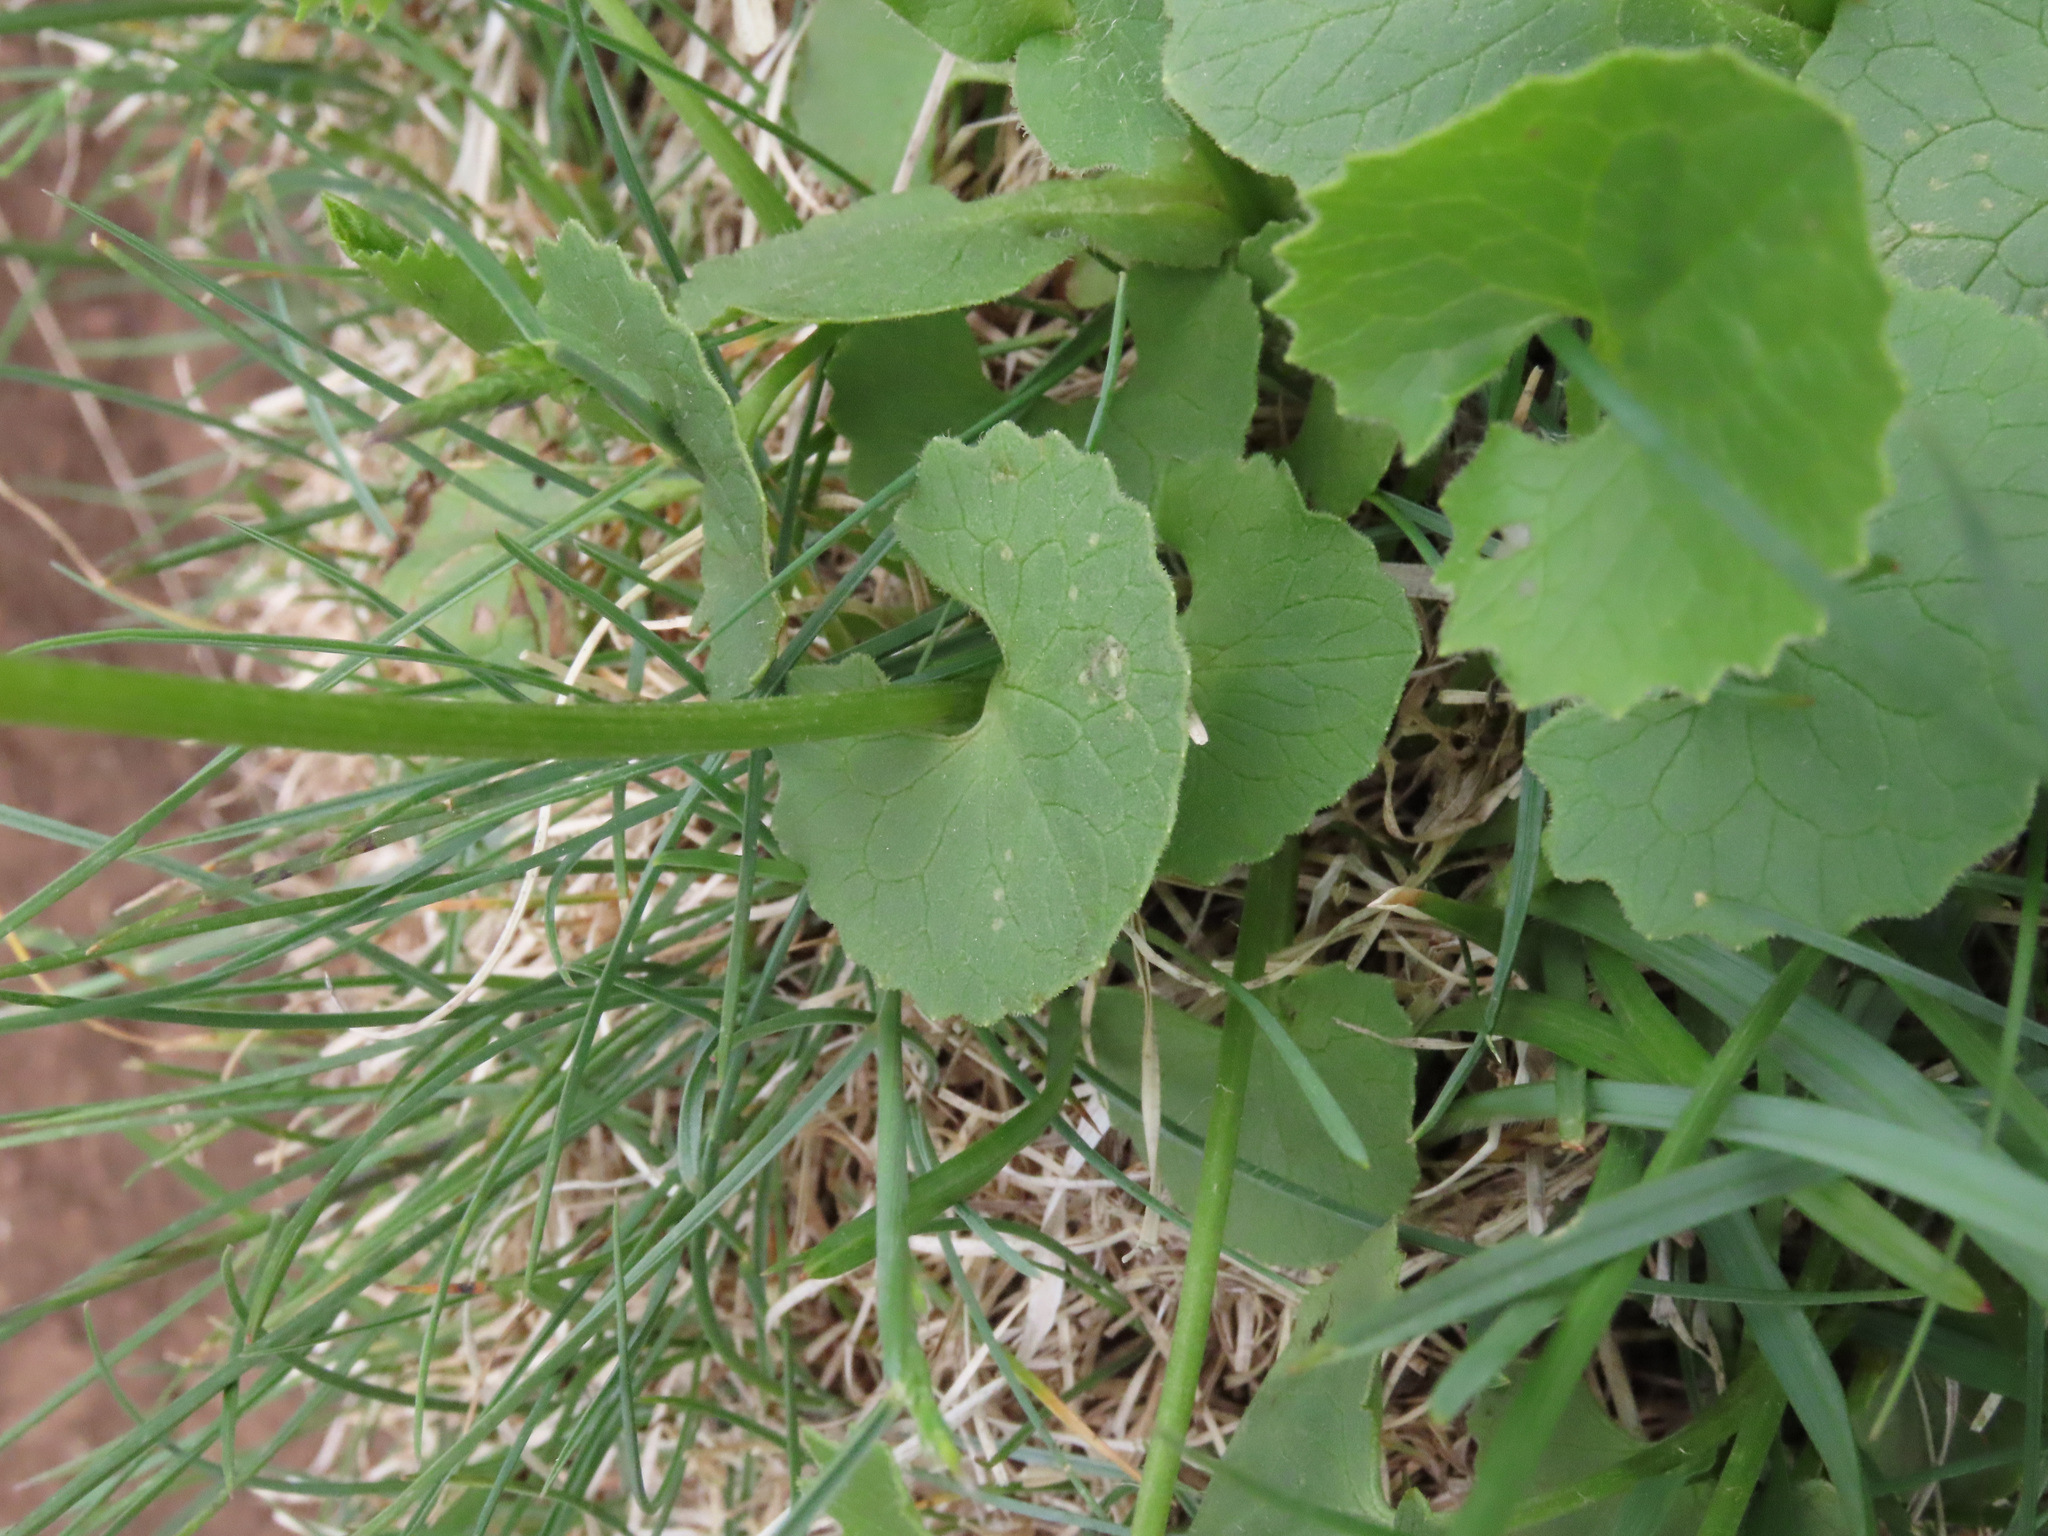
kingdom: Plantae
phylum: Tracheophyta
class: Magnoliopsida
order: Asterales
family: Asteraceae
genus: Doronicum
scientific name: Doronicum columnae
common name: Eastern leopard's-bane
